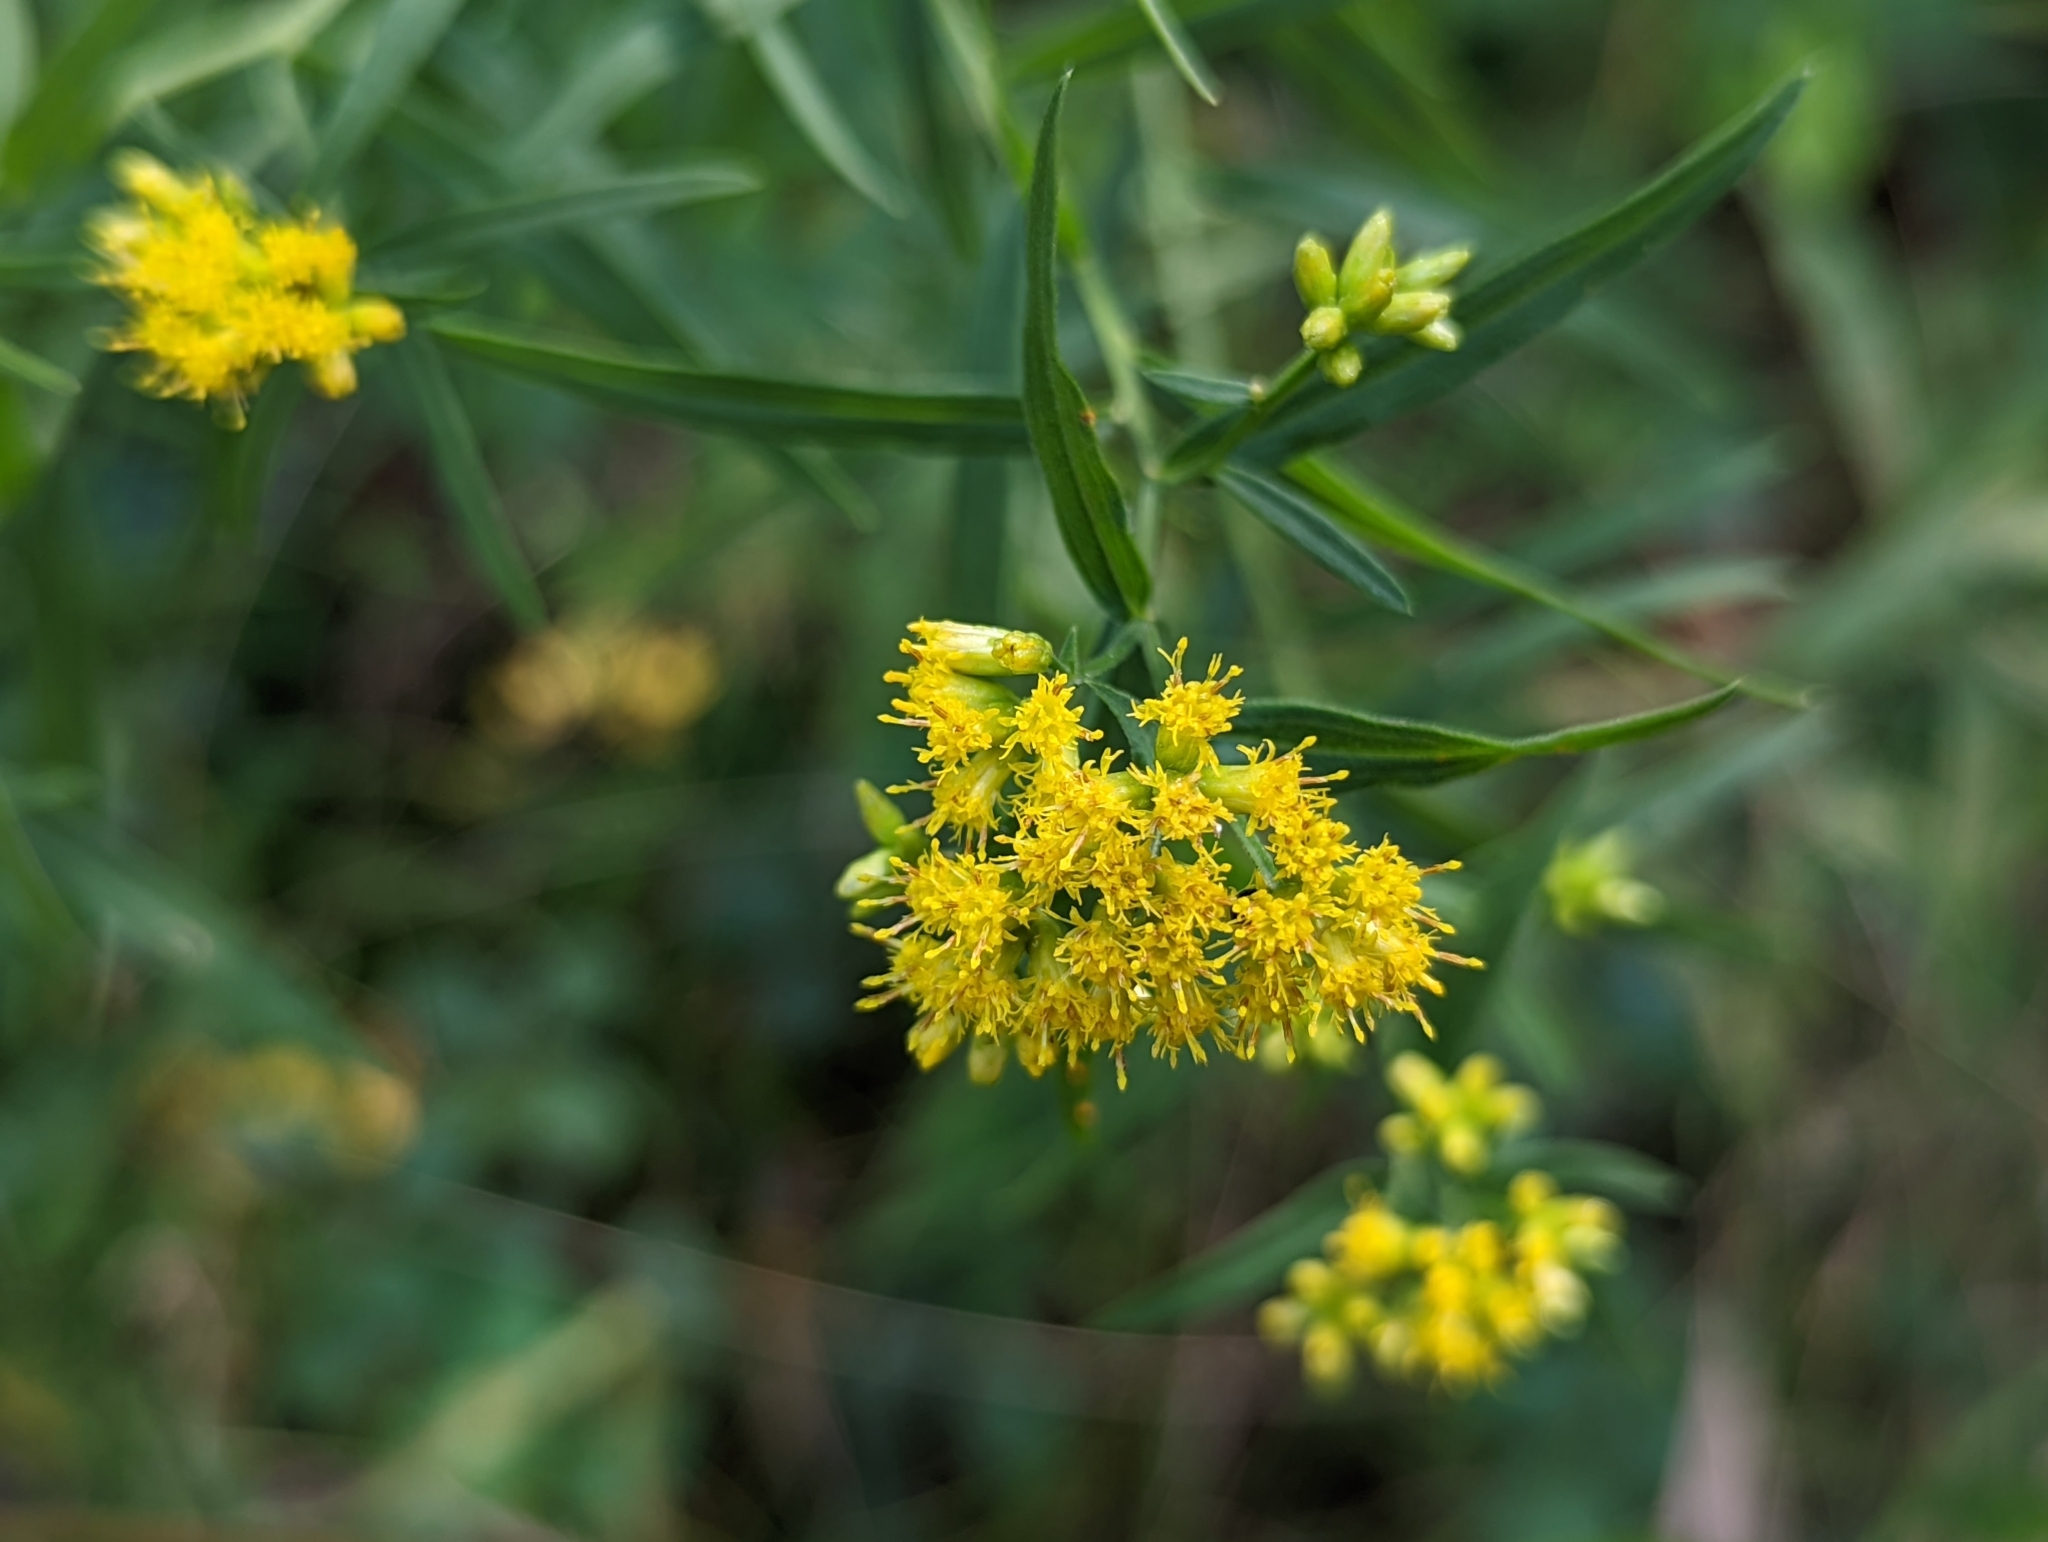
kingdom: Plantae
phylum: Tracheophyta
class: Magnoliopsida
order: Asterales
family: Asteraceae
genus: Euthamia
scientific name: Euthamia graminifolia
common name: Common goldentop
